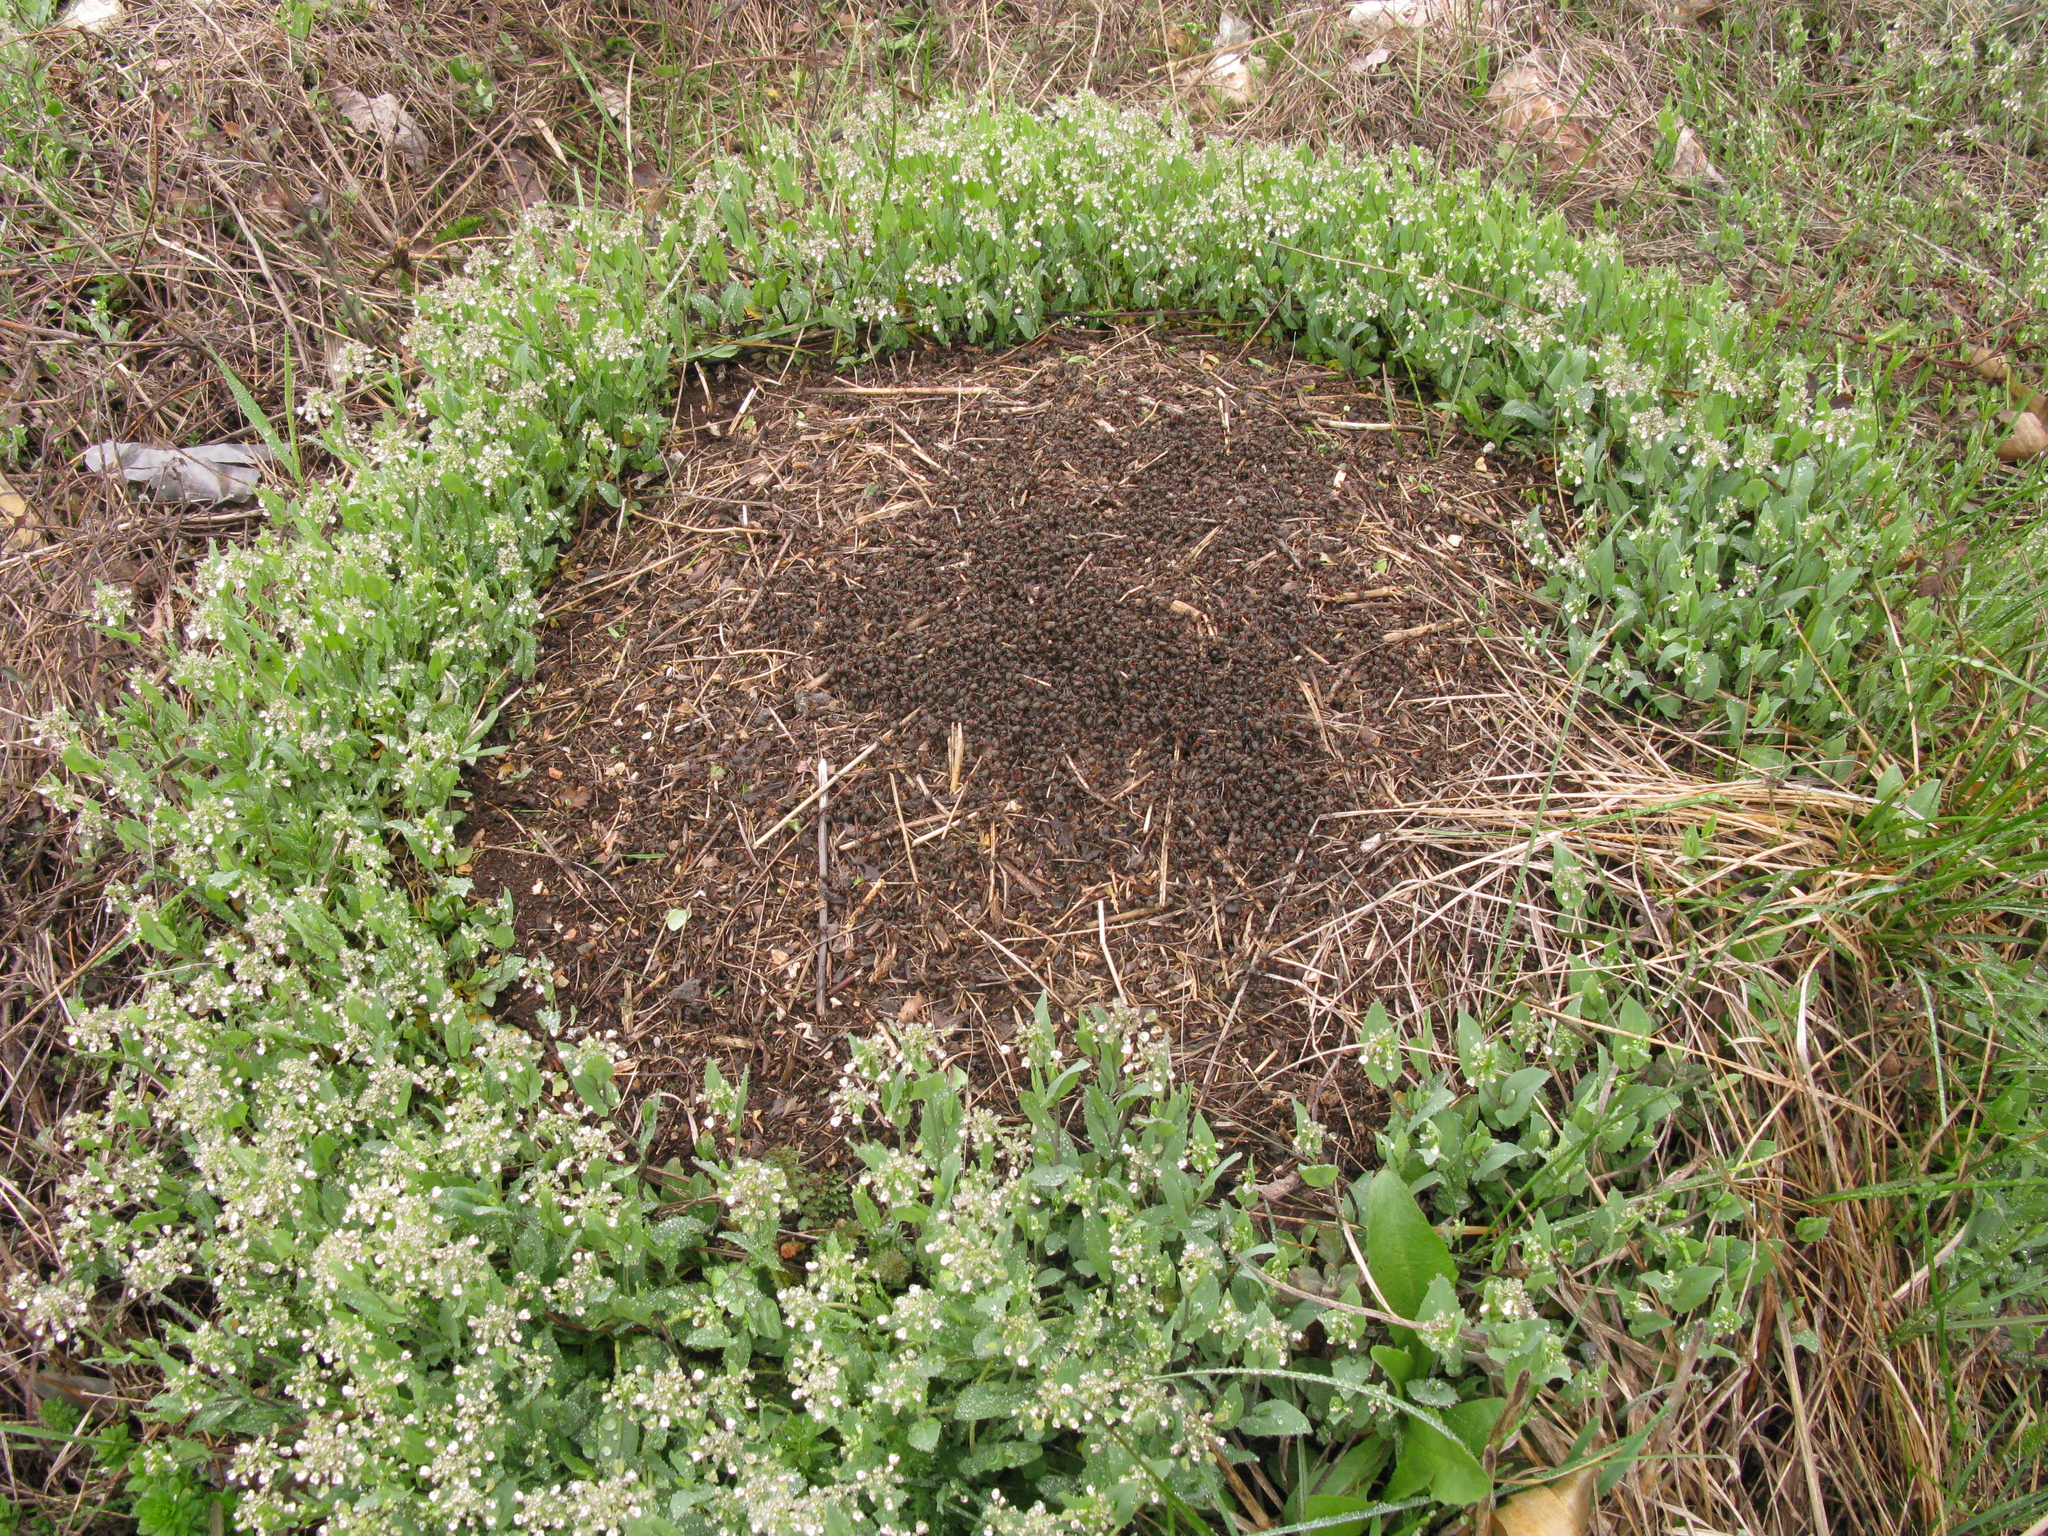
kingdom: Animalia
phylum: Arthropoda
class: Insecta
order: Hymenoptera
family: Formicidae
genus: Formica
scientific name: Formica pratensis
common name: European red wood ant
